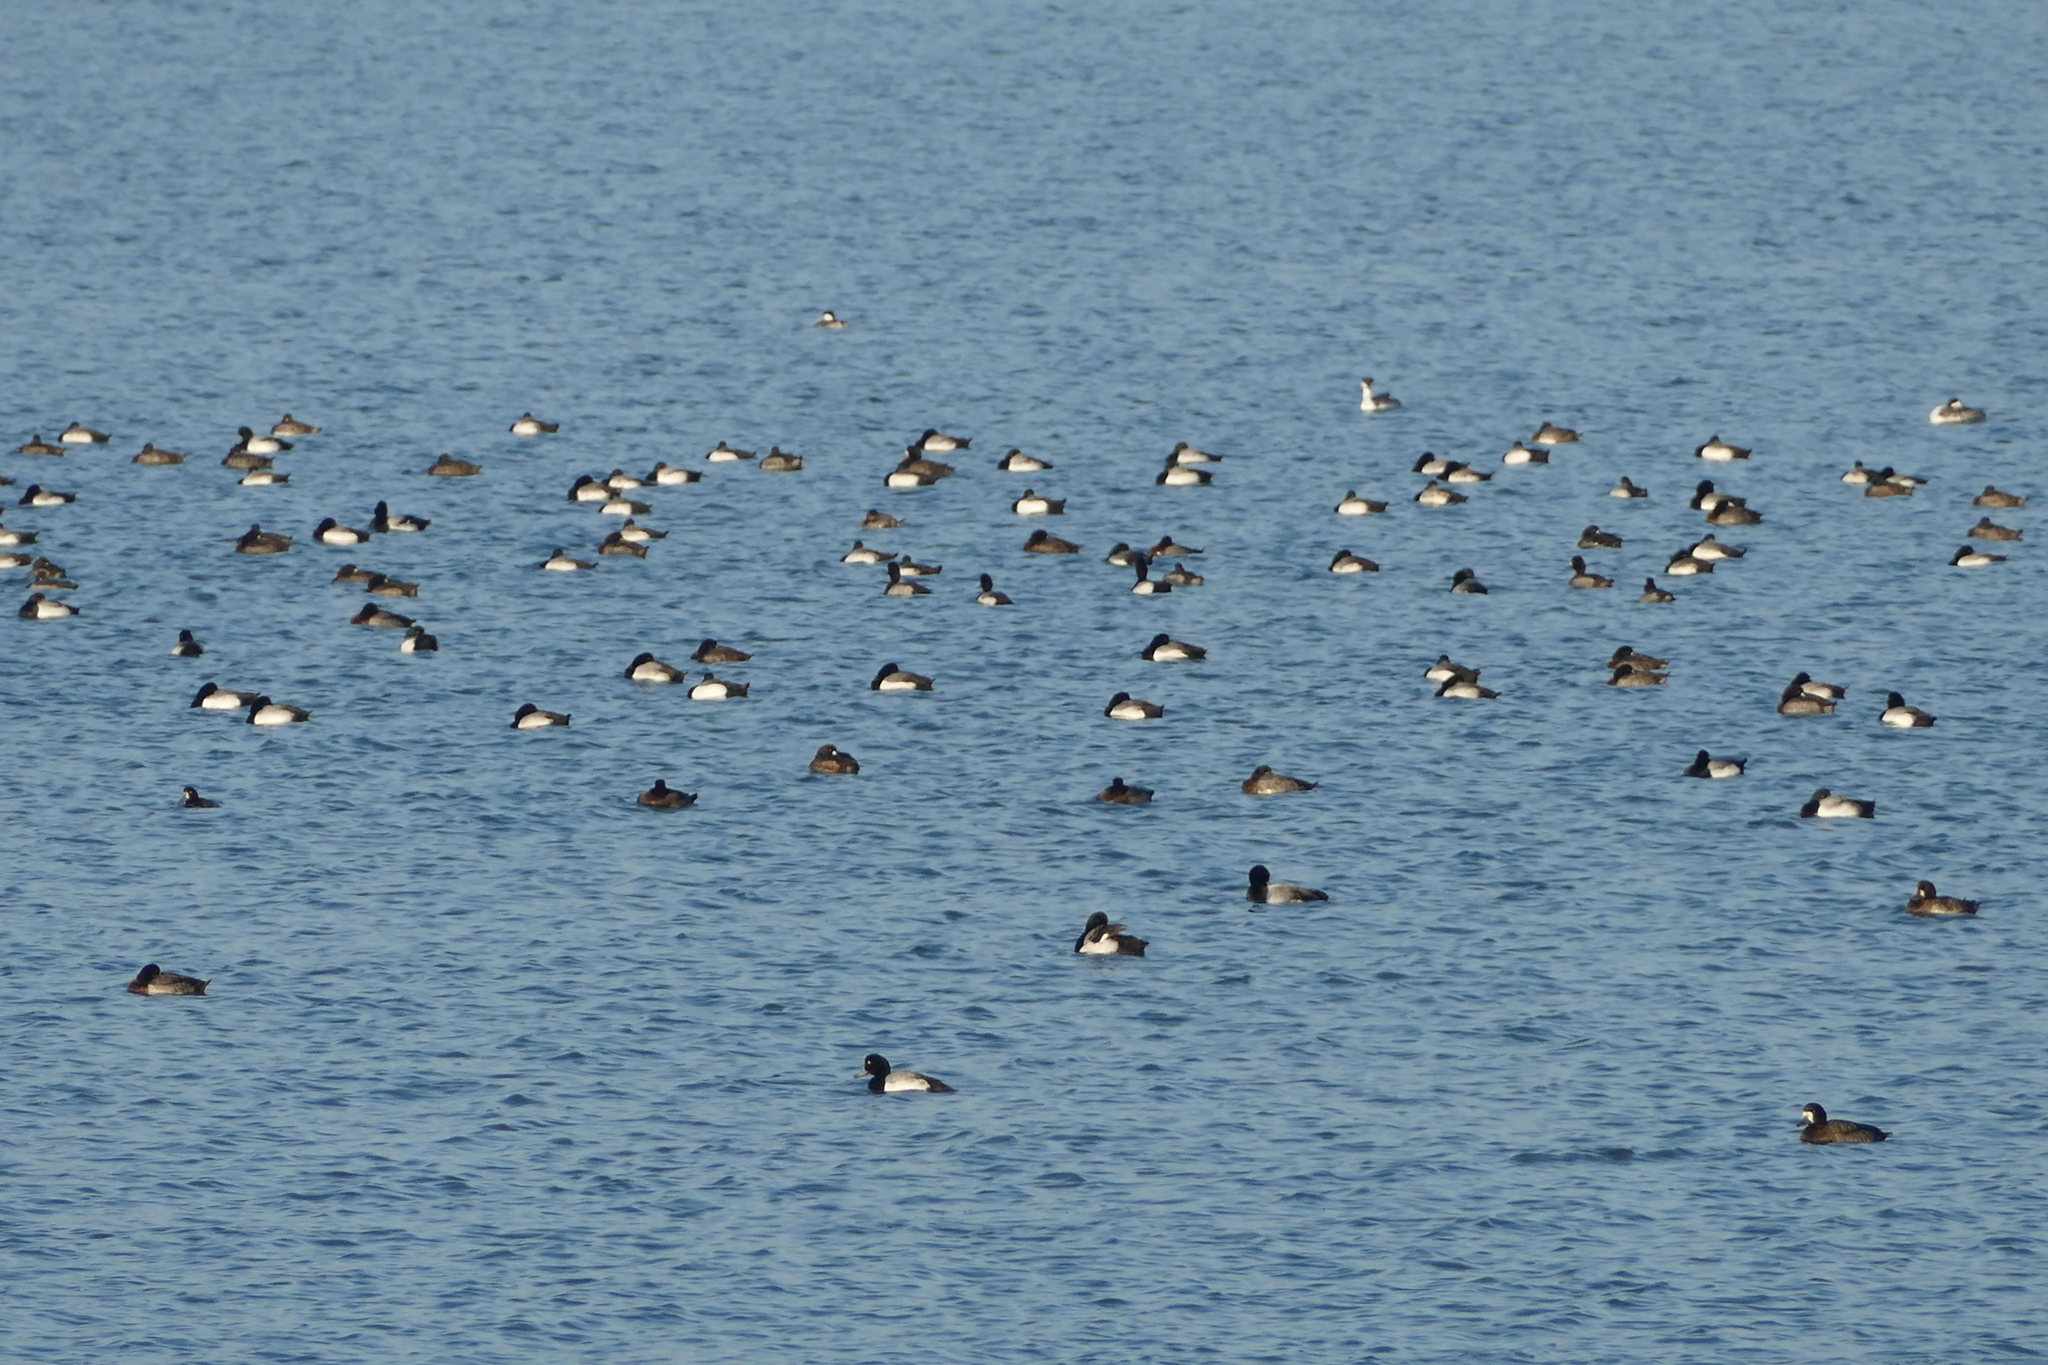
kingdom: Animalia
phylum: Chordata
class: Aves
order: Anseriformes
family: Anatidae
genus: Aythya
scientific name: Aythya marila
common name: Greater scaup
